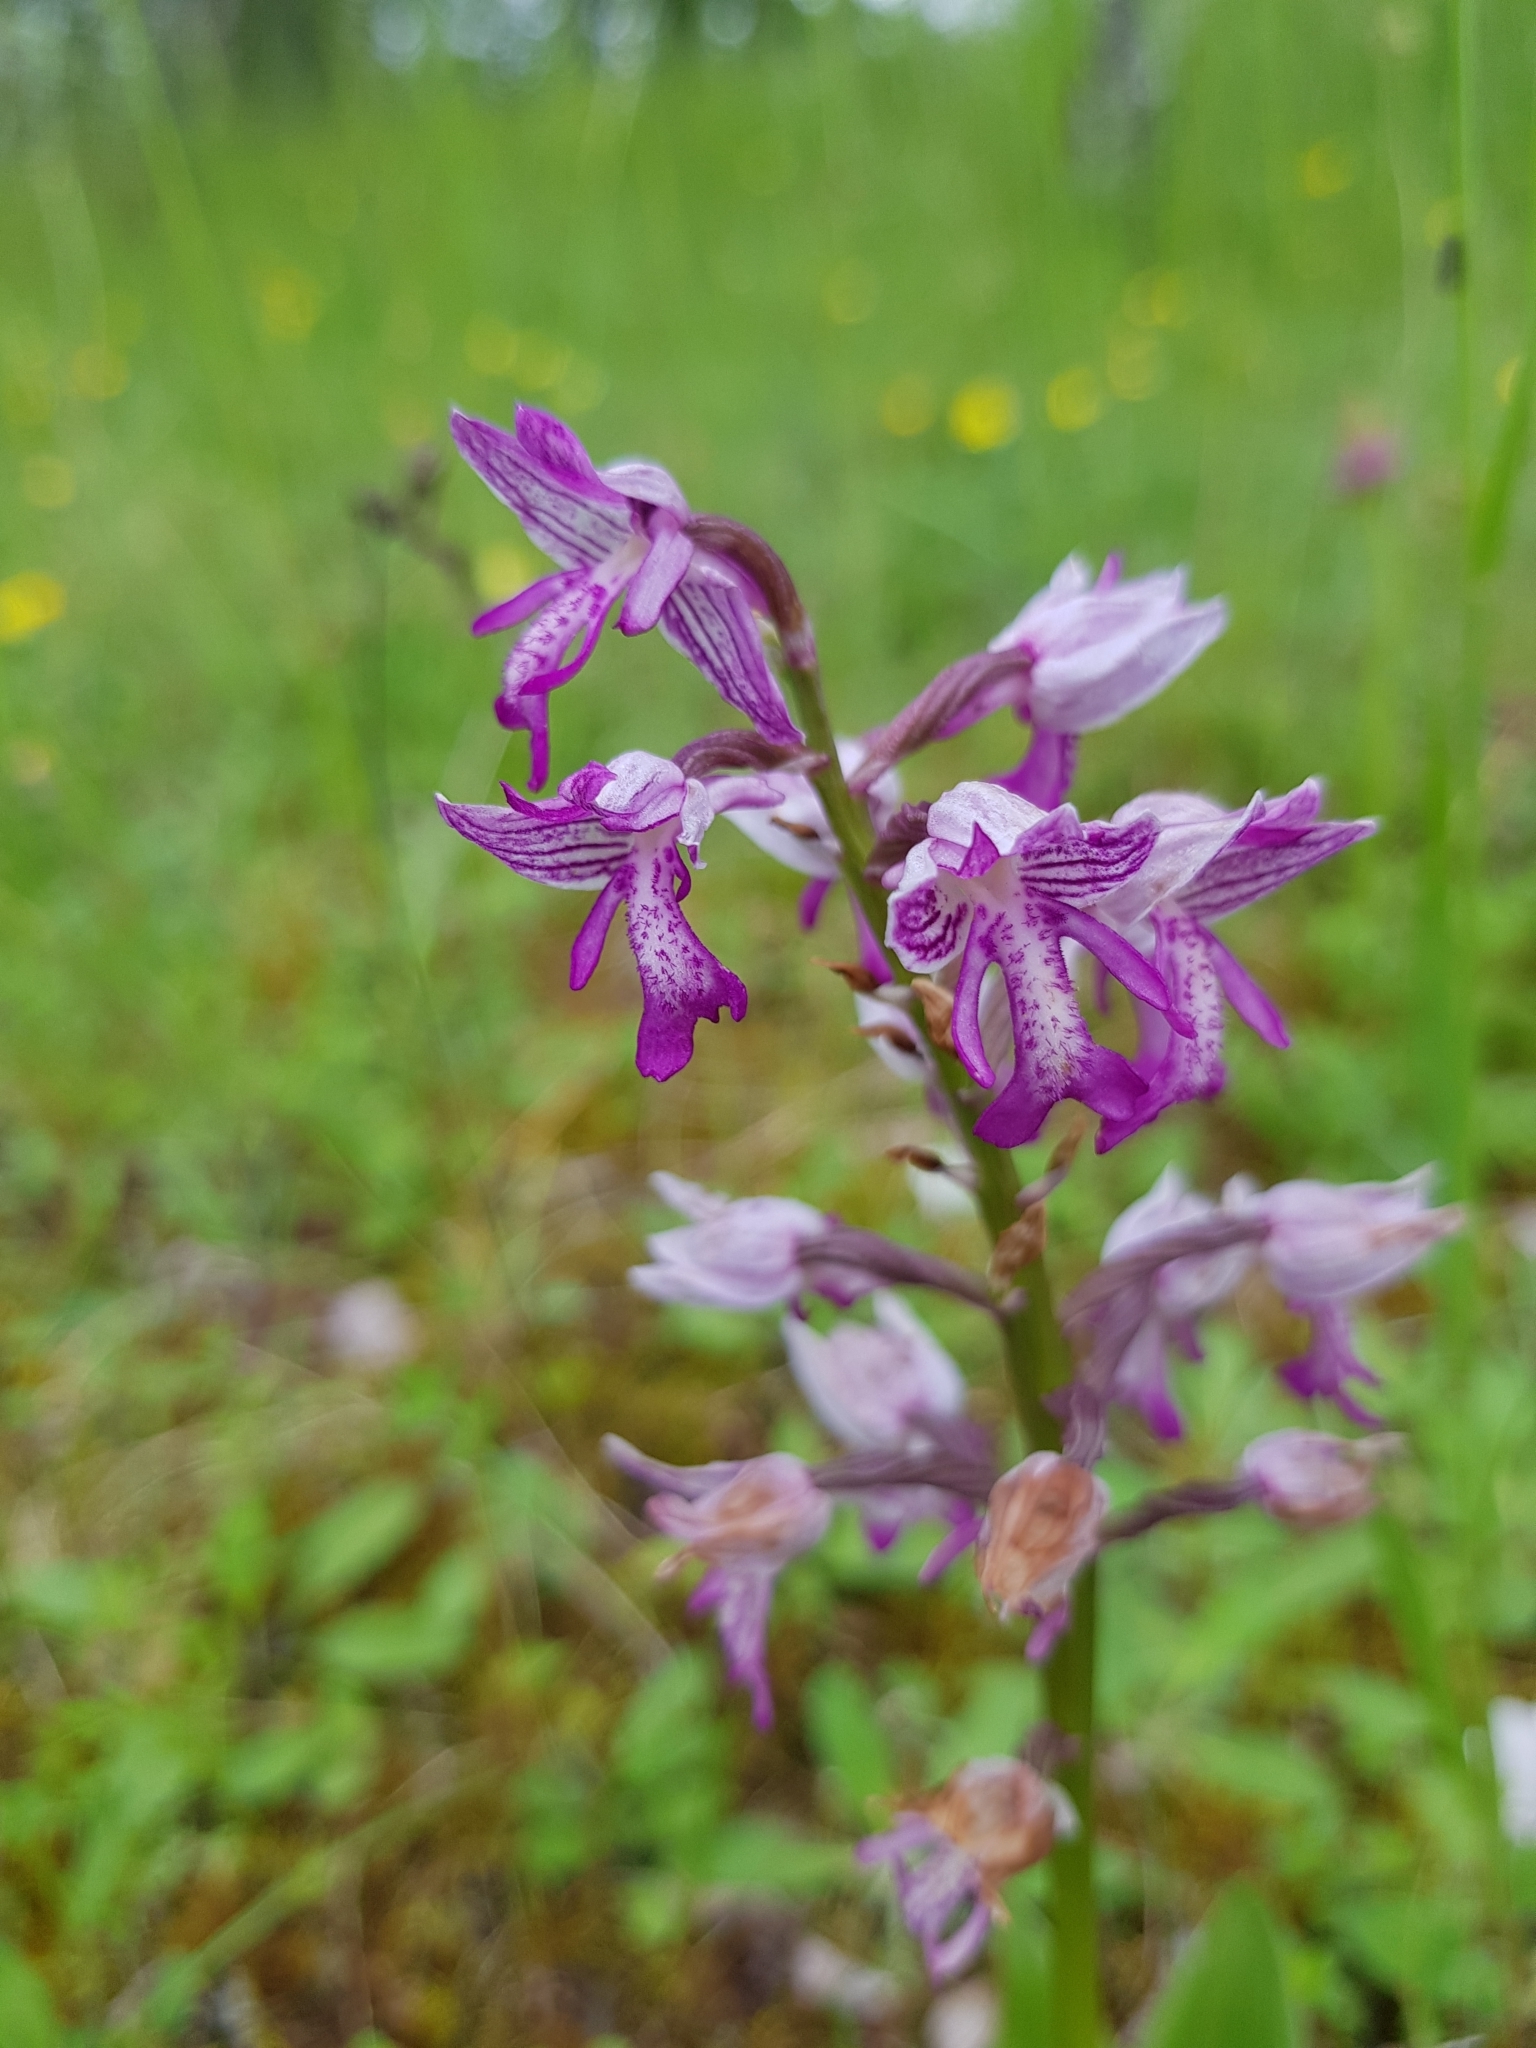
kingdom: Plantae
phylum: Tracheophyta
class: Liliopsida
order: Asparagales
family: Orchidaceae
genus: Orchis
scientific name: Orchis militaris
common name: Military orchid
